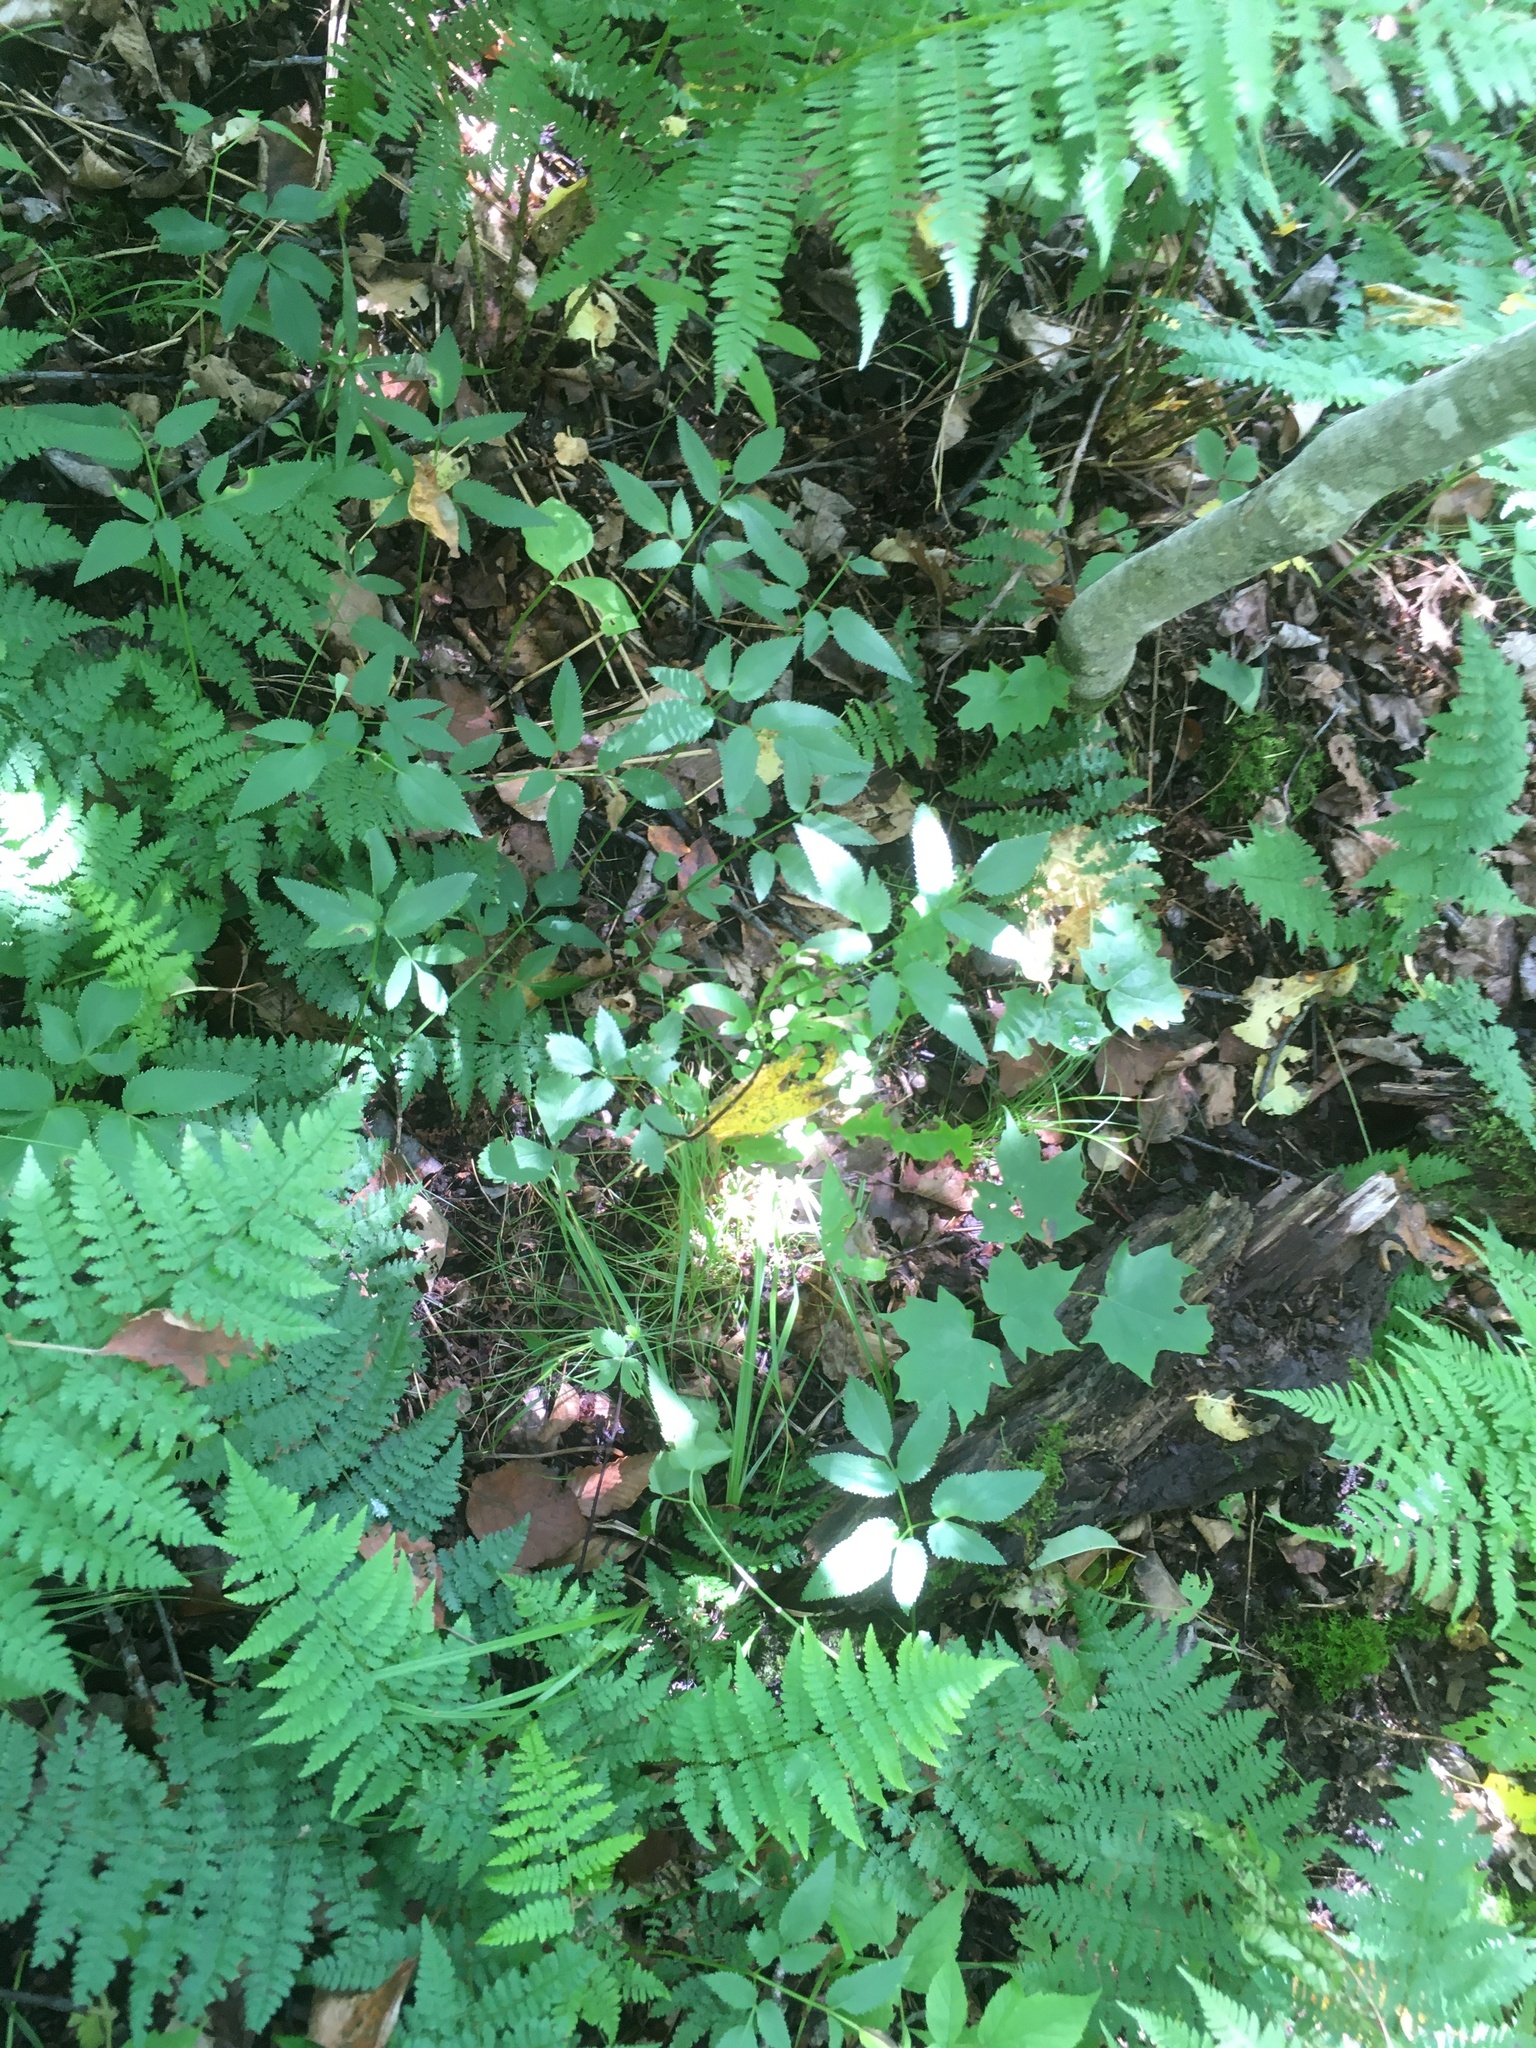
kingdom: Plantae
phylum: Tracheophyta
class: Magnoliopsida
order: Apiales
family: Apiaceae
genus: Zizia
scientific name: Zizia aurea
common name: Golden alexanders
